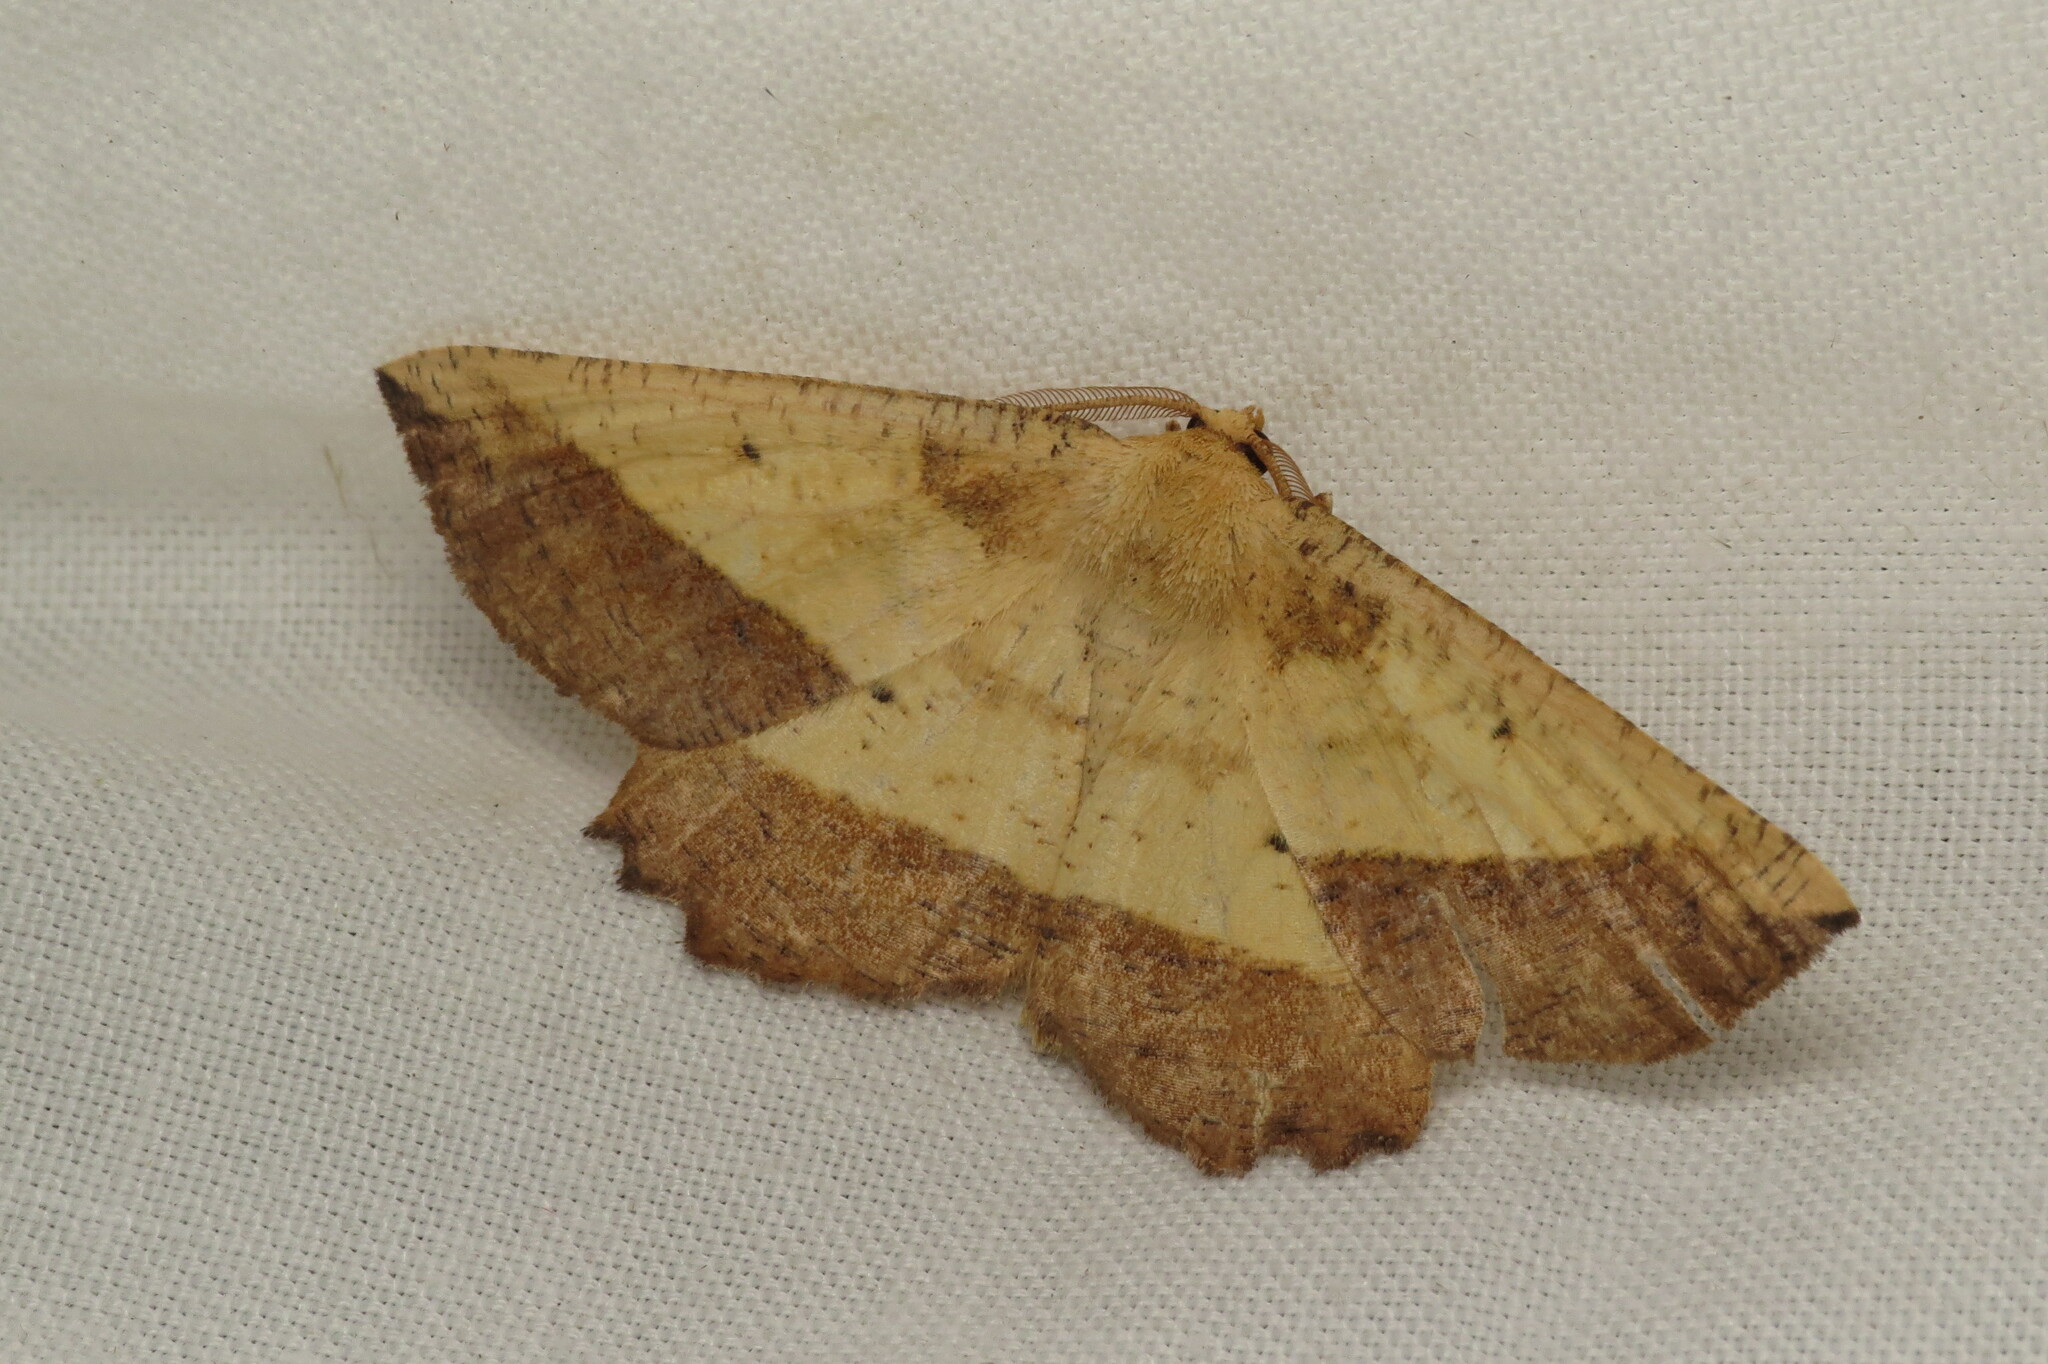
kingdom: Animalia
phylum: Arthropoda
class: Insecta
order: Lepidoptera
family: Geometridae
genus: Euchlaena
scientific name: Euchlaena serrata
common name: Saw wing
